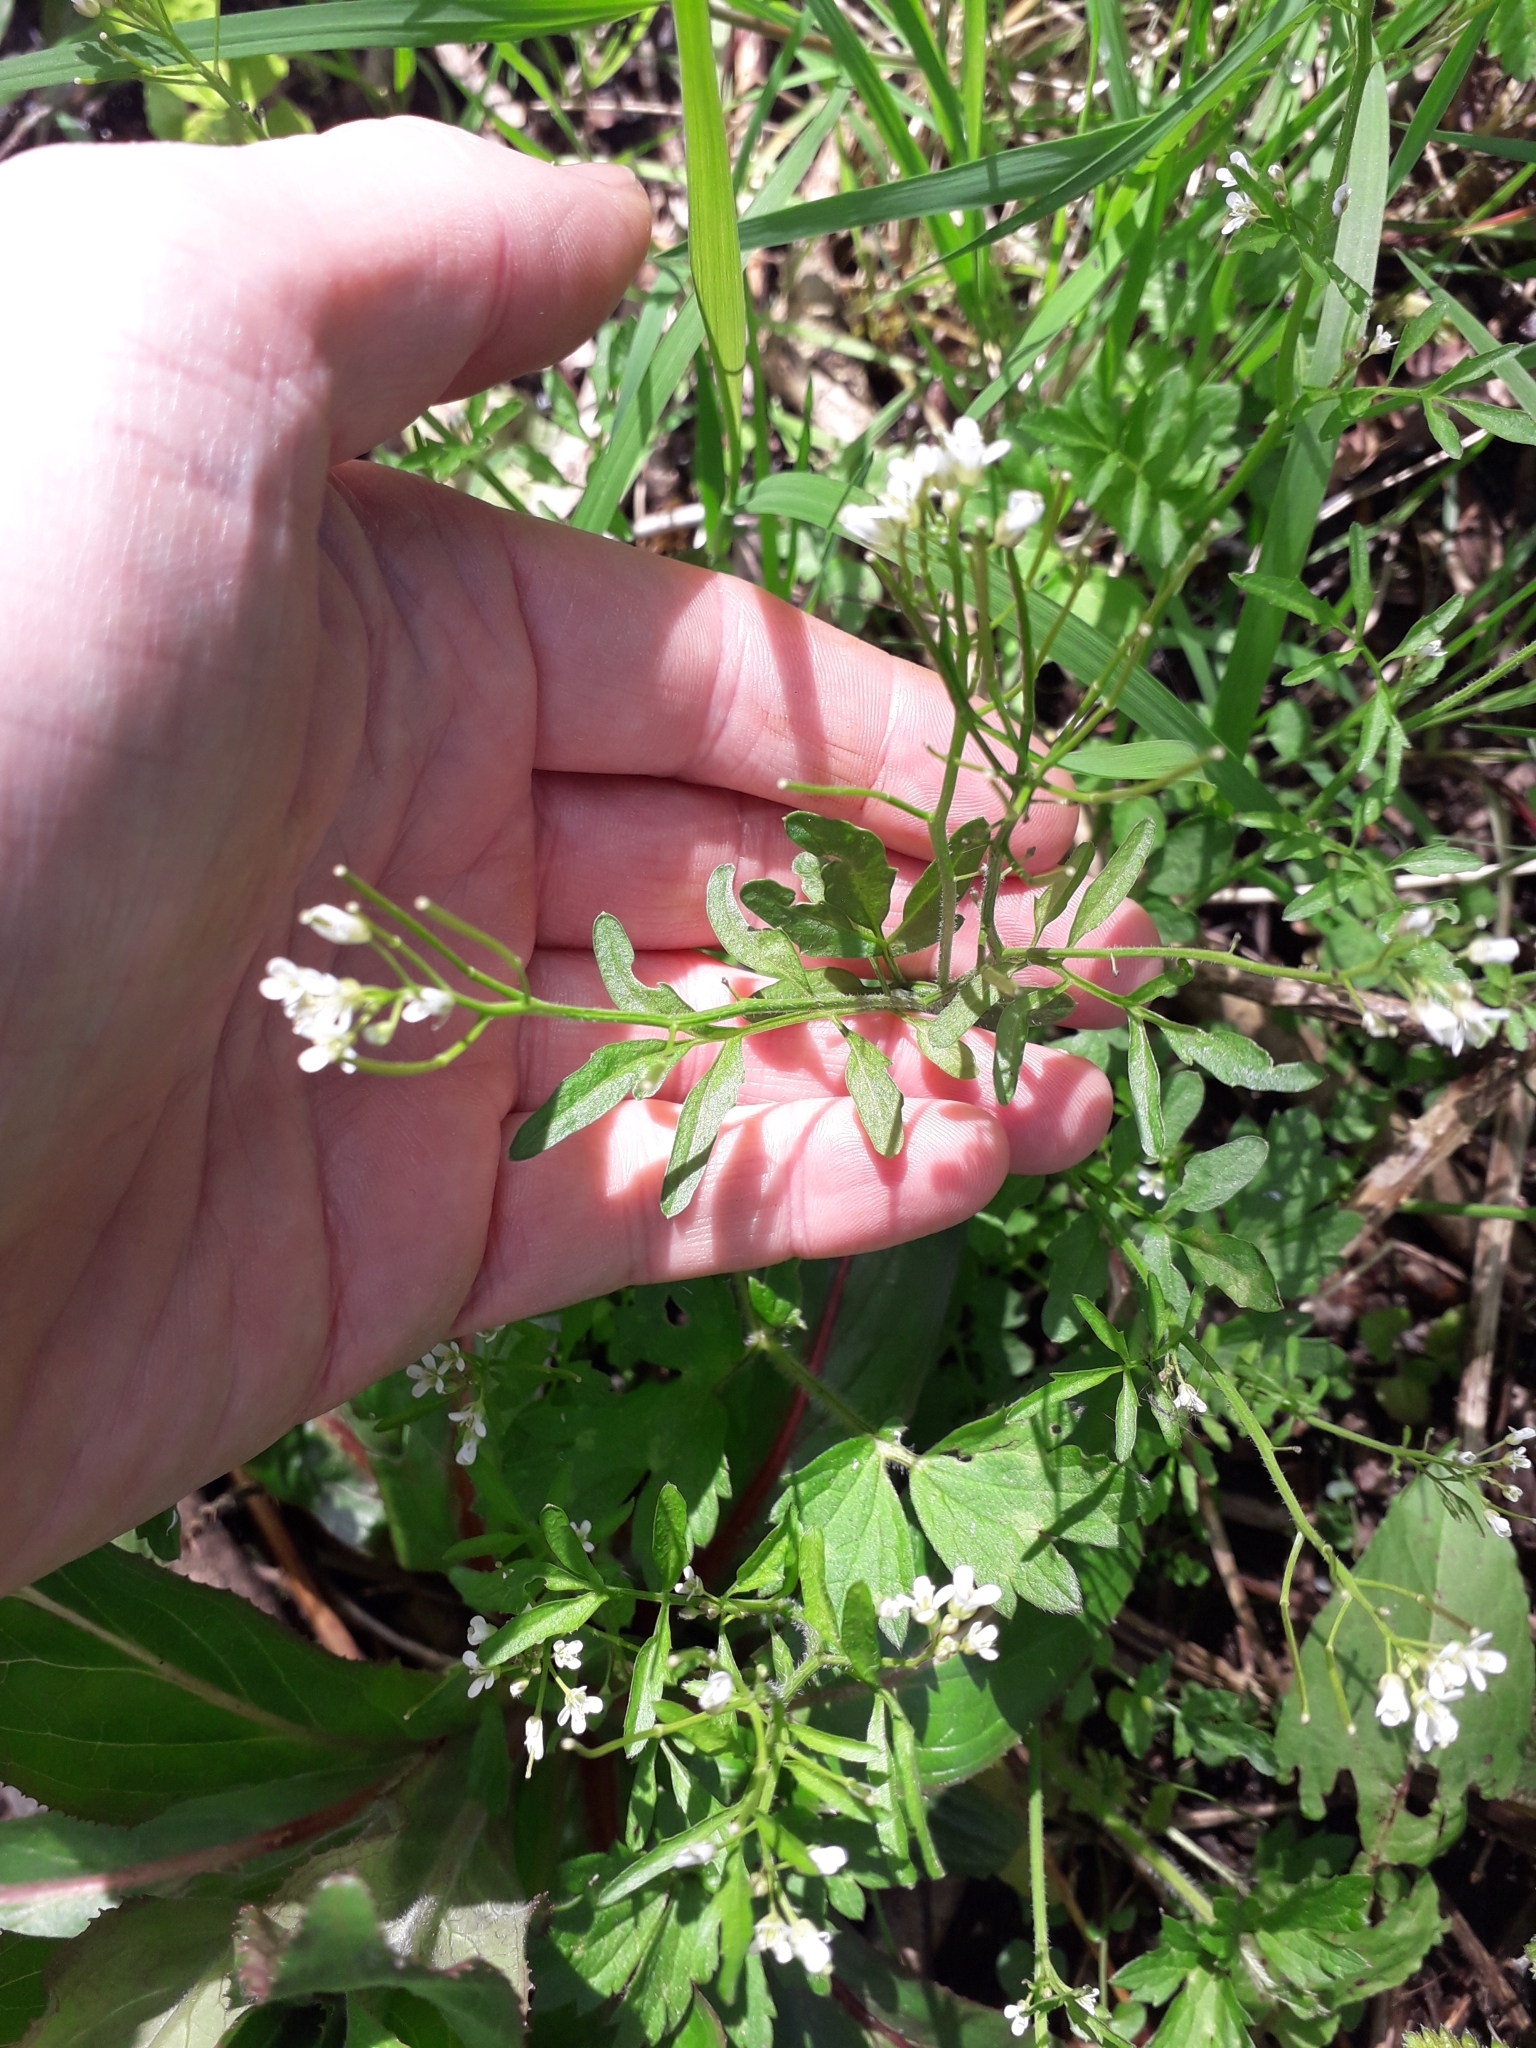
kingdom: Plantae
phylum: Tracheophyta
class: Magnoliopsida
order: Brassicales
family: Brassicaceae
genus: Cardamine
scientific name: Cardamine flexuosa
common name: Woodland bittercress
